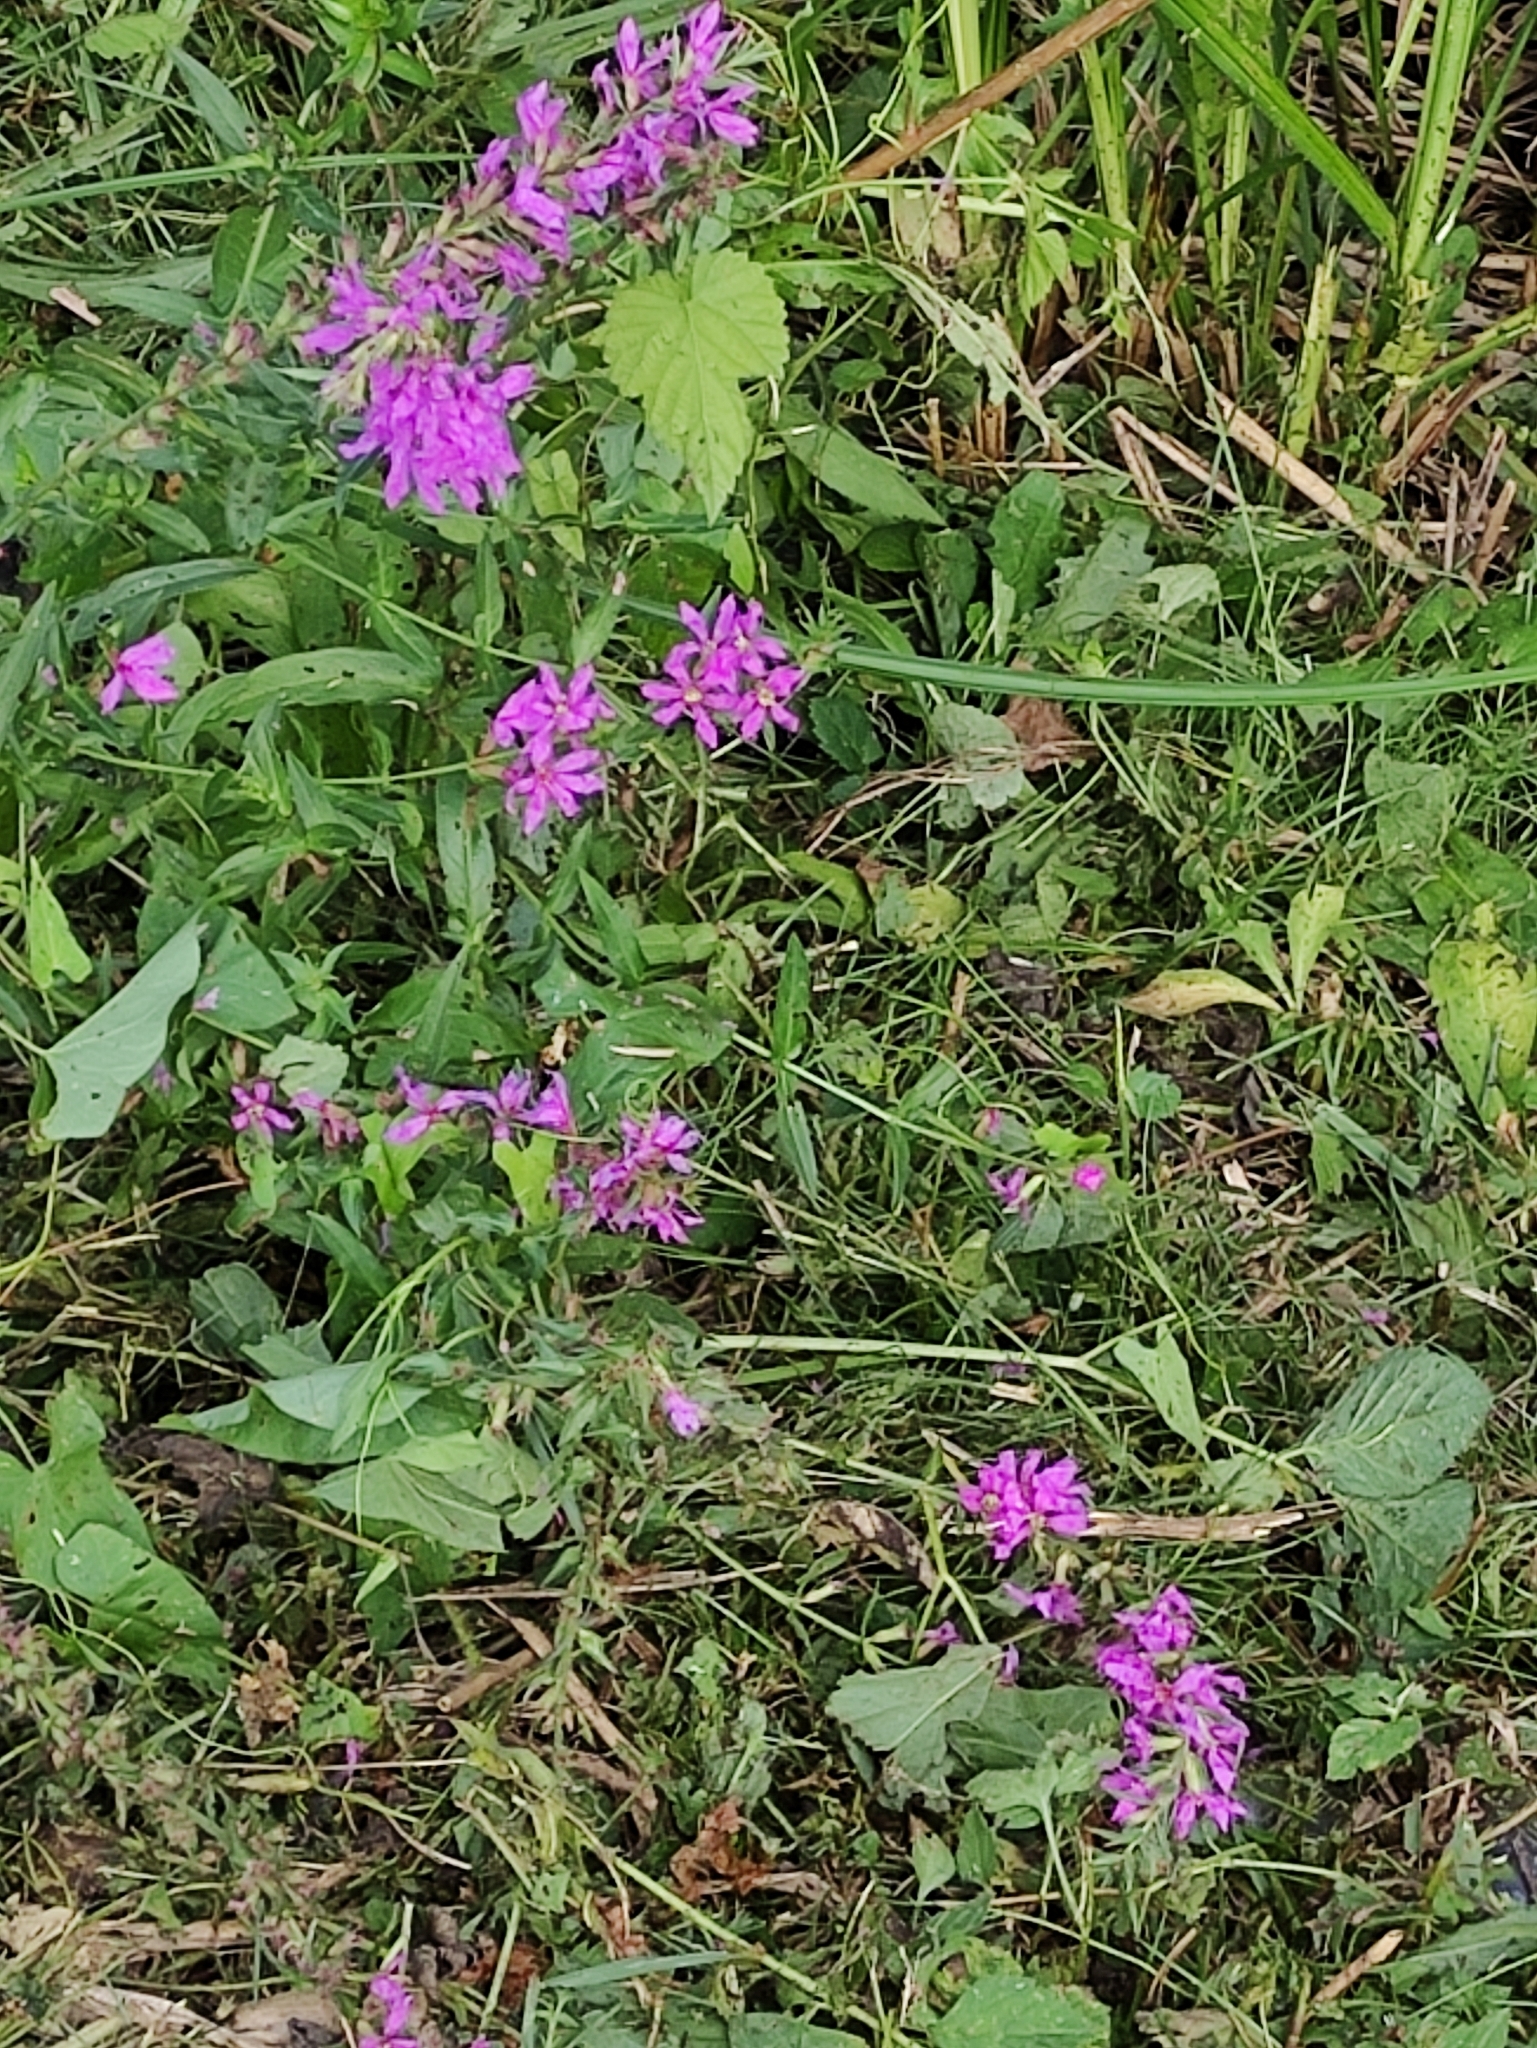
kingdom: Plantae
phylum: Tracheophyta
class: Magnoliopsida
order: Myrtales
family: Lythraceae
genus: Lythrum
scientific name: Lythrum salicaria
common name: Purple loosestrife
